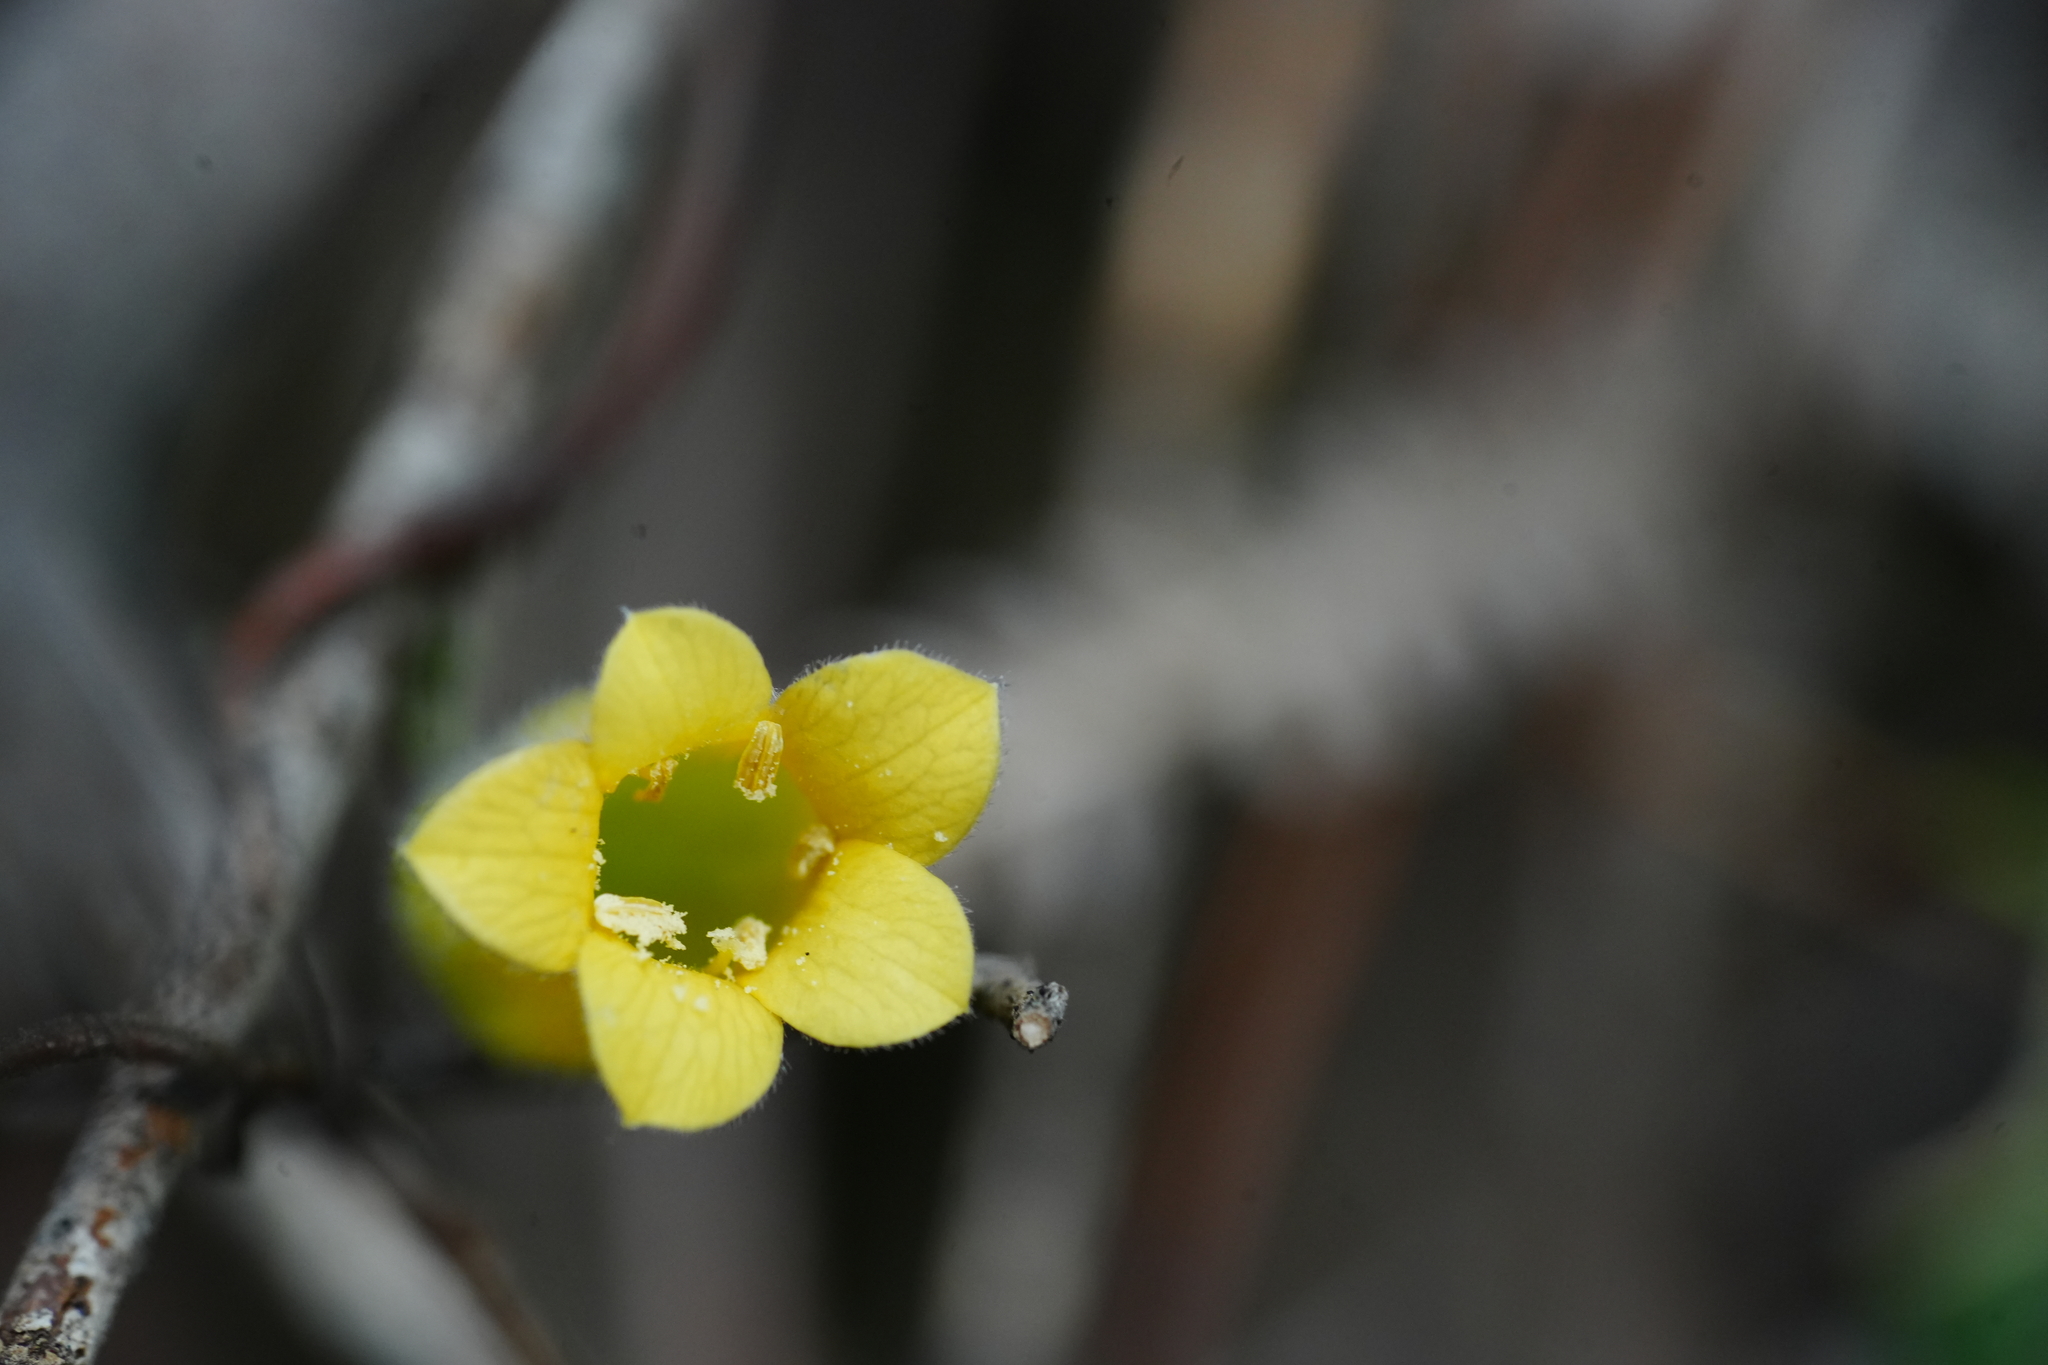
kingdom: Plantae
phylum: Tracheophyta
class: Magnoliopsida
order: Apiales
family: Pittosporaceae
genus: Marianthus
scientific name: Marianthus bignoniaceus
